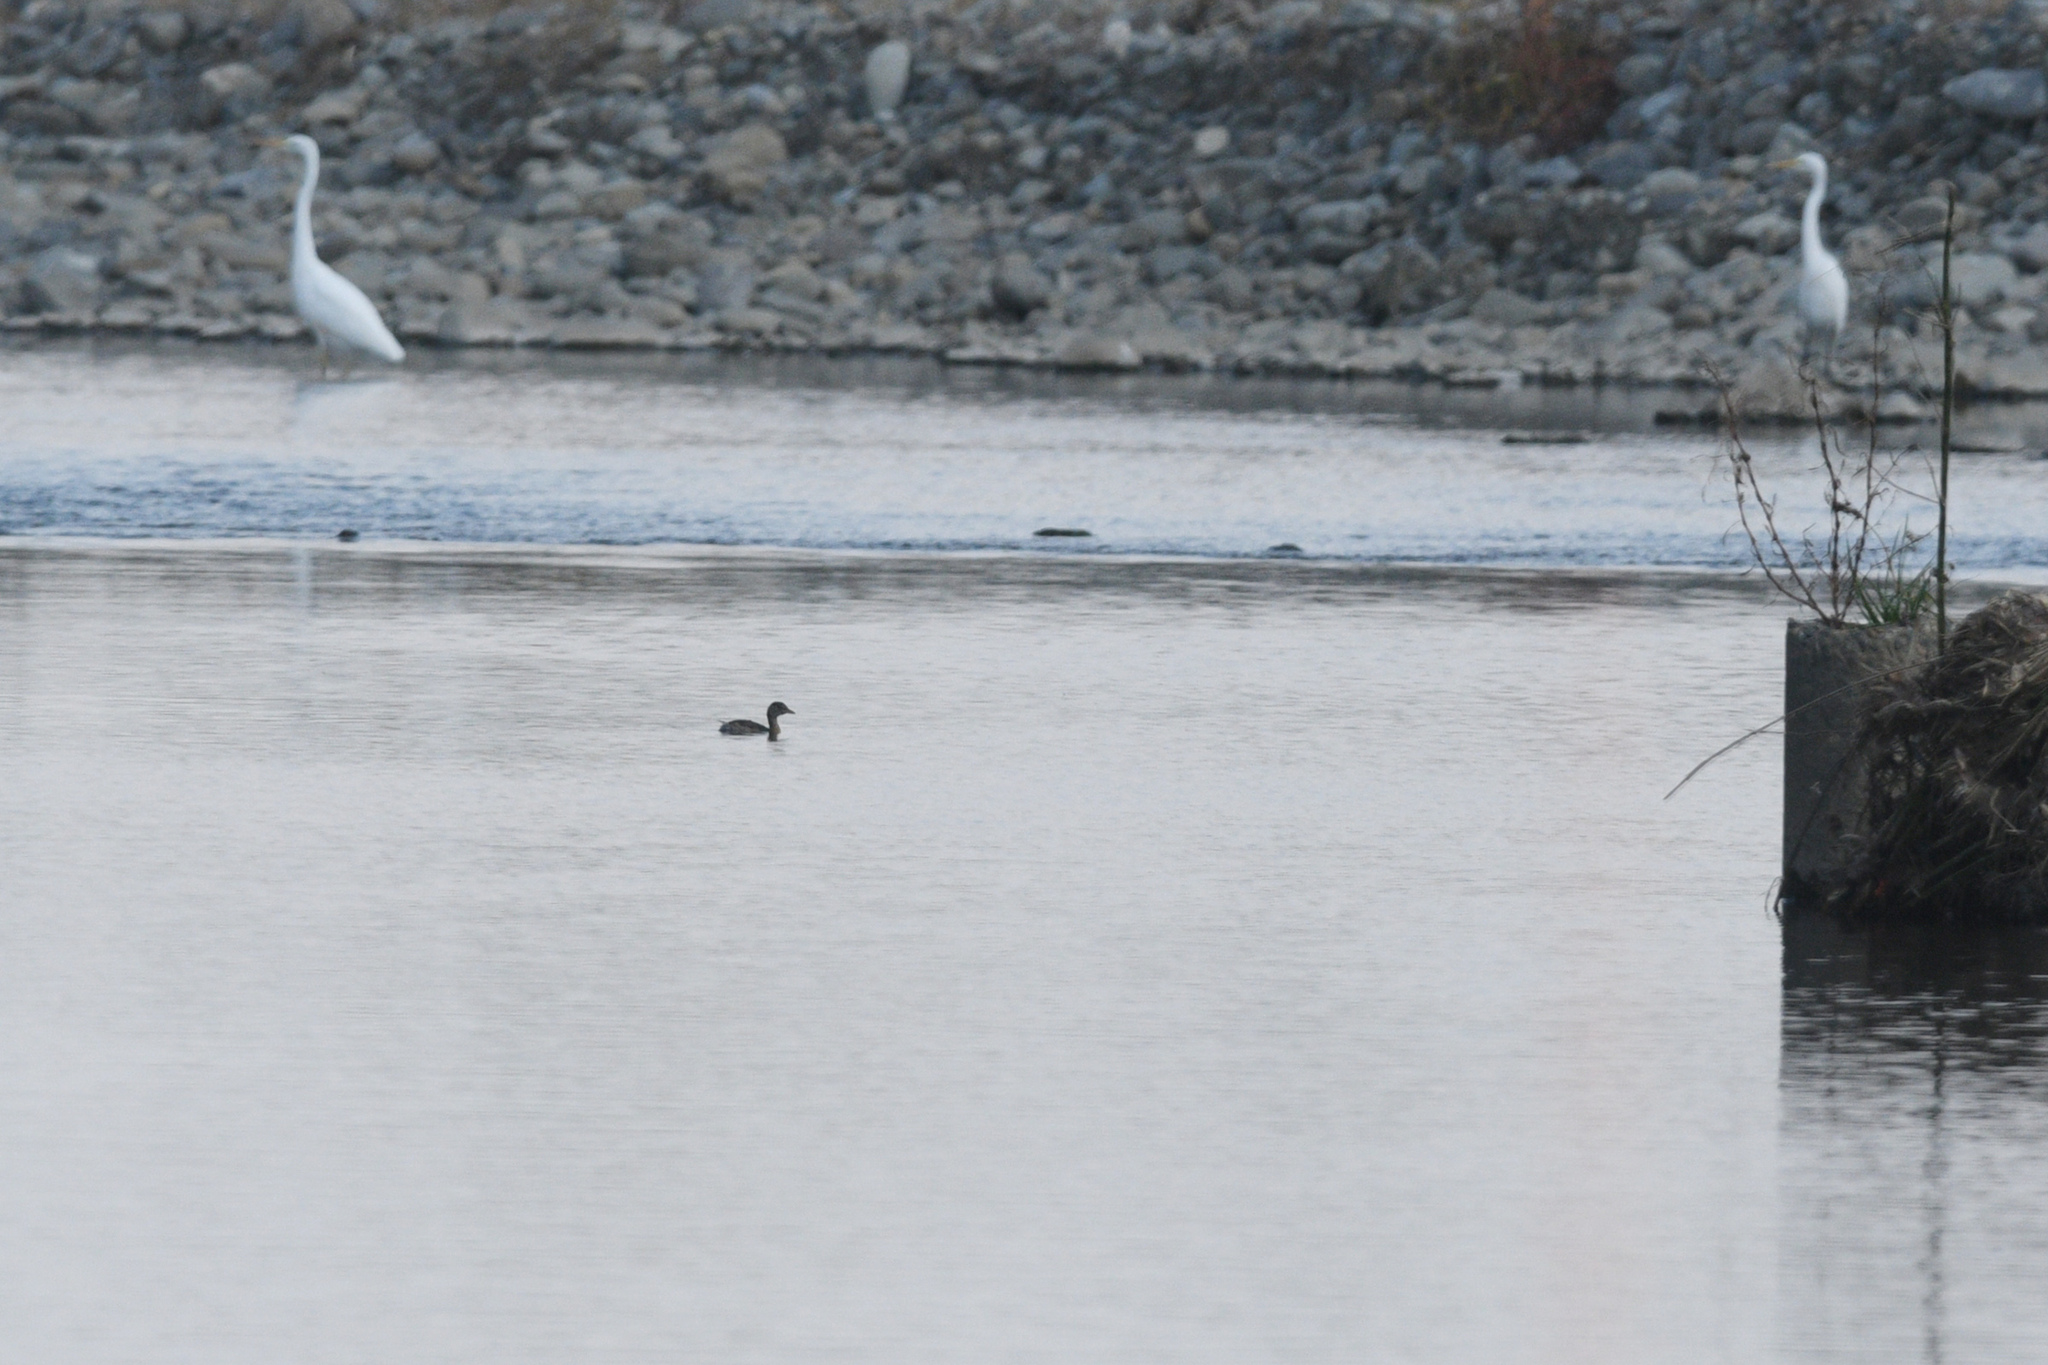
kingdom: Animalia
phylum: Chordata
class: Aves
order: Podicipediformes
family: Podicipedidae
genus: Tachybaptus
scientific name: Tachybaptus ruficollis
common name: Little grebe
